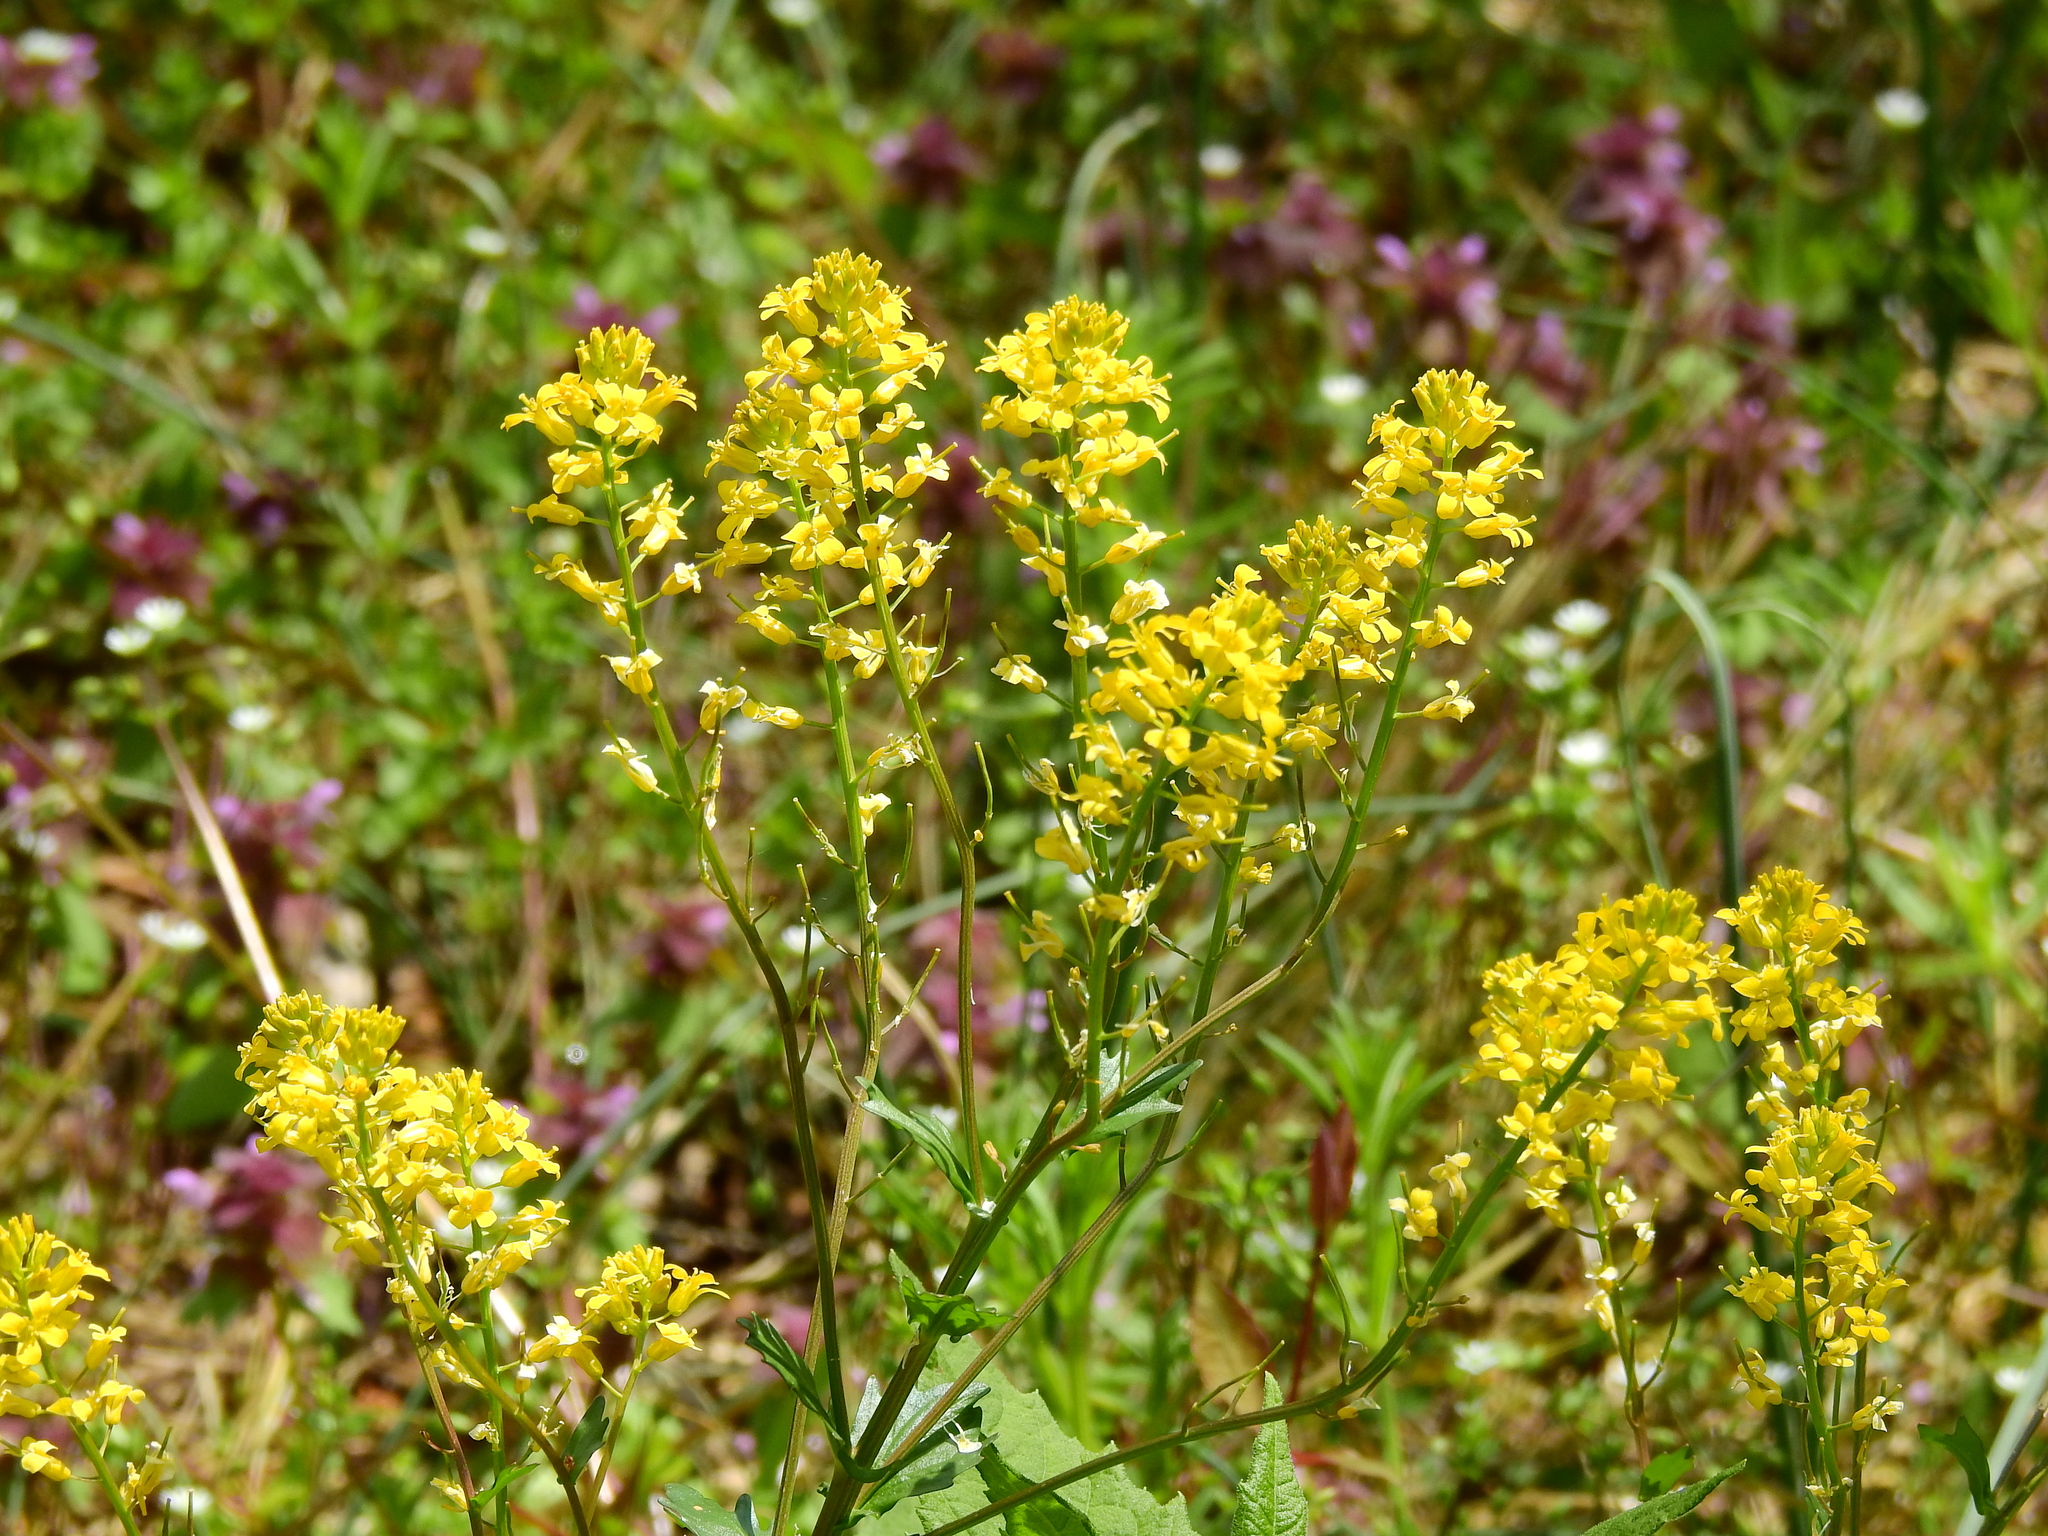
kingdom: Plantae
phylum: Tracheophyta
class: Magnoliopsida
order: Brassicales
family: Brassicaceae
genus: Barbarea
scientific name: Barbarea vulgaris
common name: Cressy-greens
